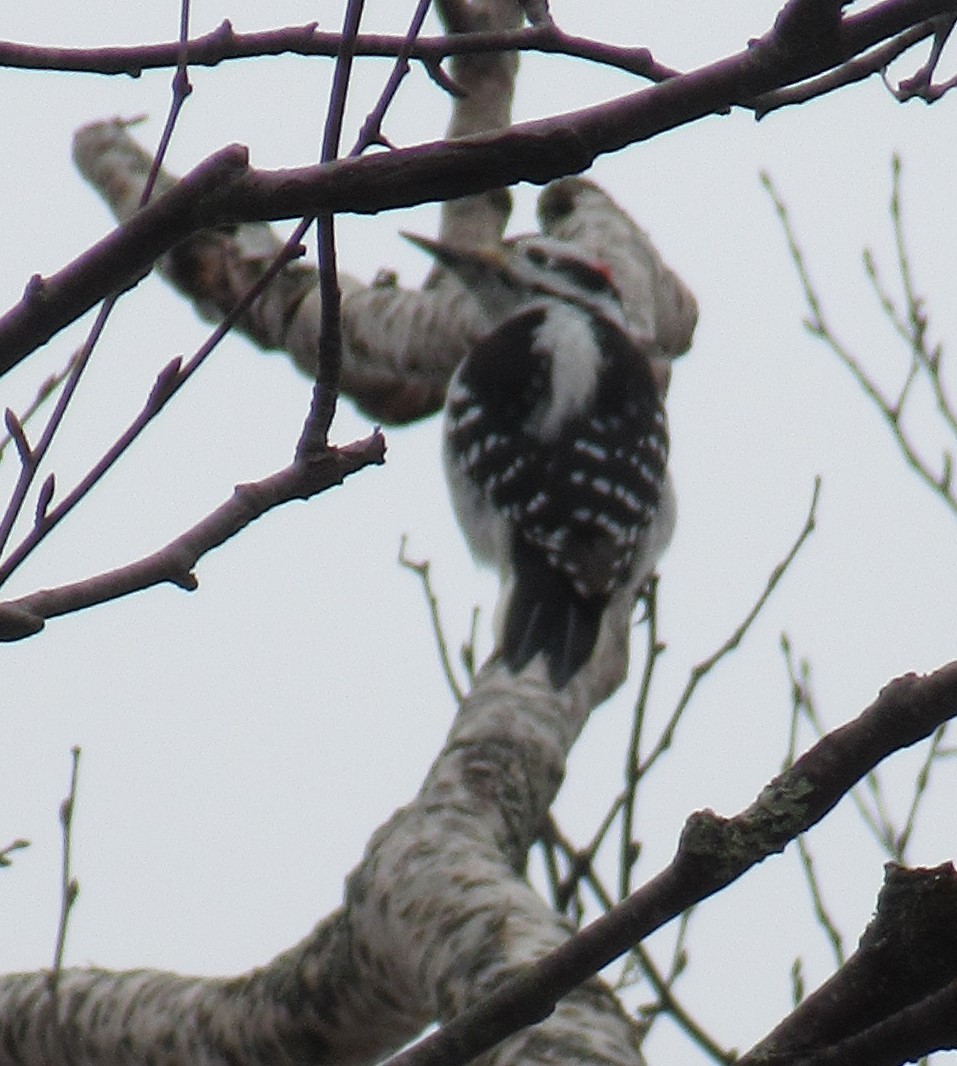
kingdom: Animalia
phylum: Chordata
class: Aves
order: Piciformes
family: Picidae
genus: Leuconotopicus
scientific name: Leuconotopicus villosus
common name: Hairy woodpecker
